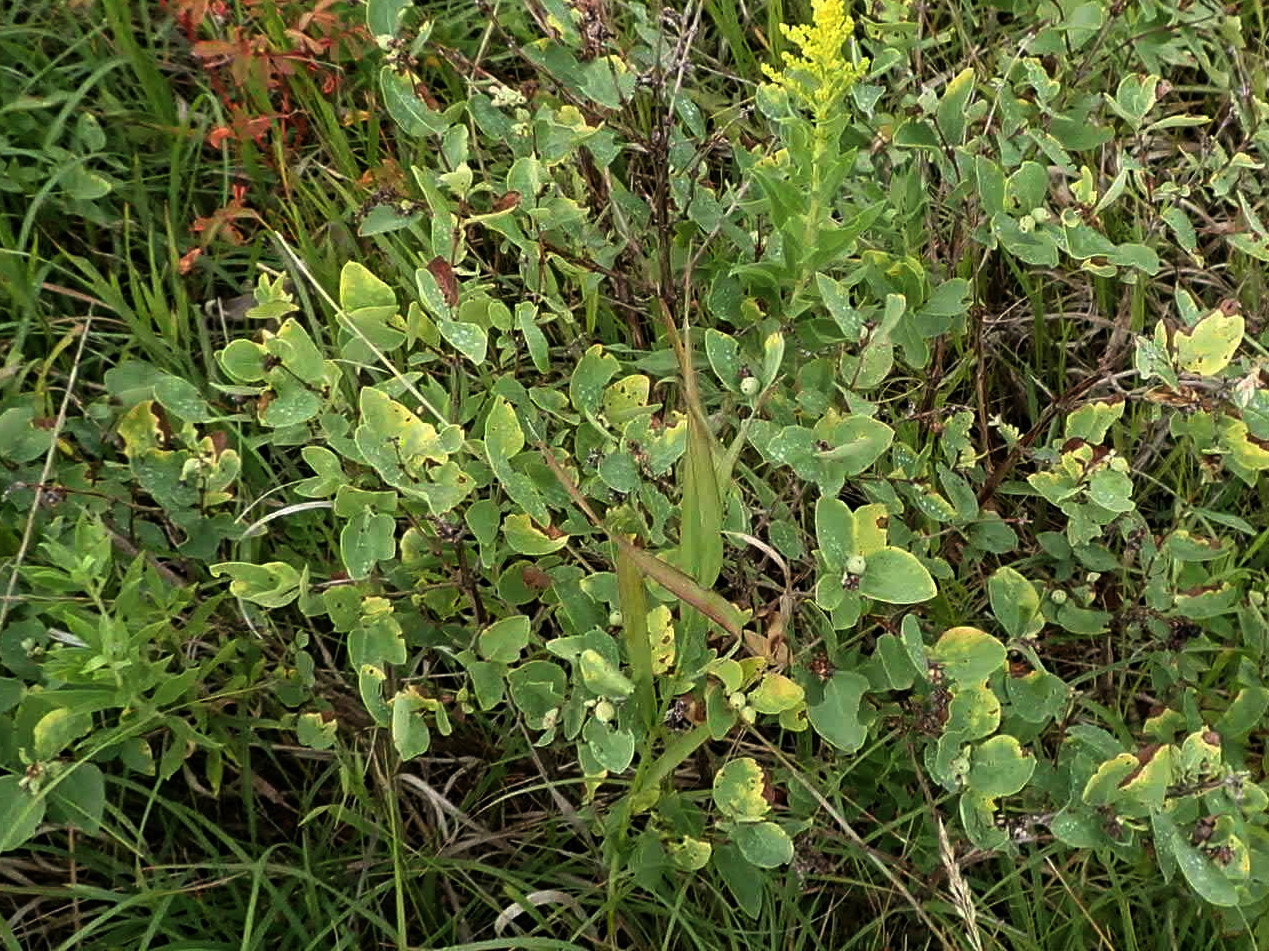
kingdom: Plantae
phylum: Tracheophyta
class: Magnoliopsida
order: Dipsacales
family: Caprifoliaceae
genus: Symphoricarpos
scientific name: Symphoricarpos occidentalis
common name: Wolfberry
